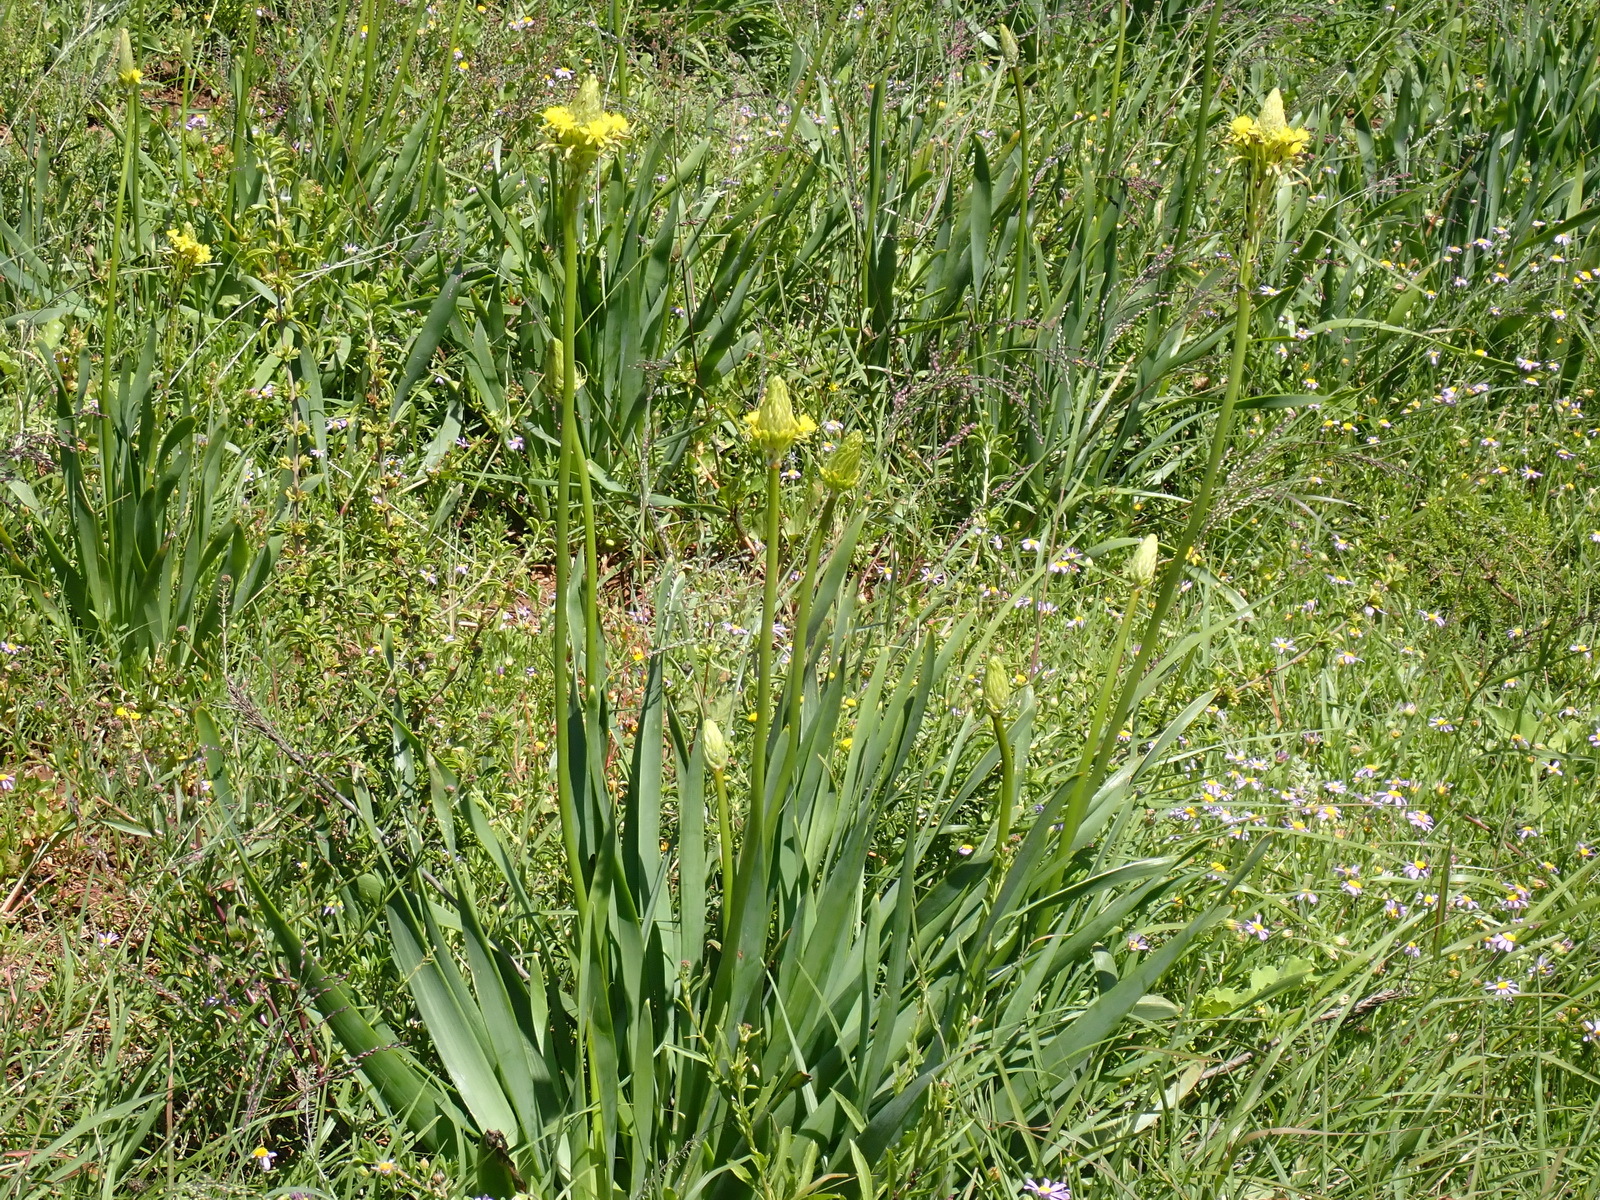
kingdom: Plantae
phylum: Tracheophyta
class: Liliopsida
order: Asparagales
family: Asphodelaceae
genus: Bulbine
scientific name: Bulbine narcissifolia
